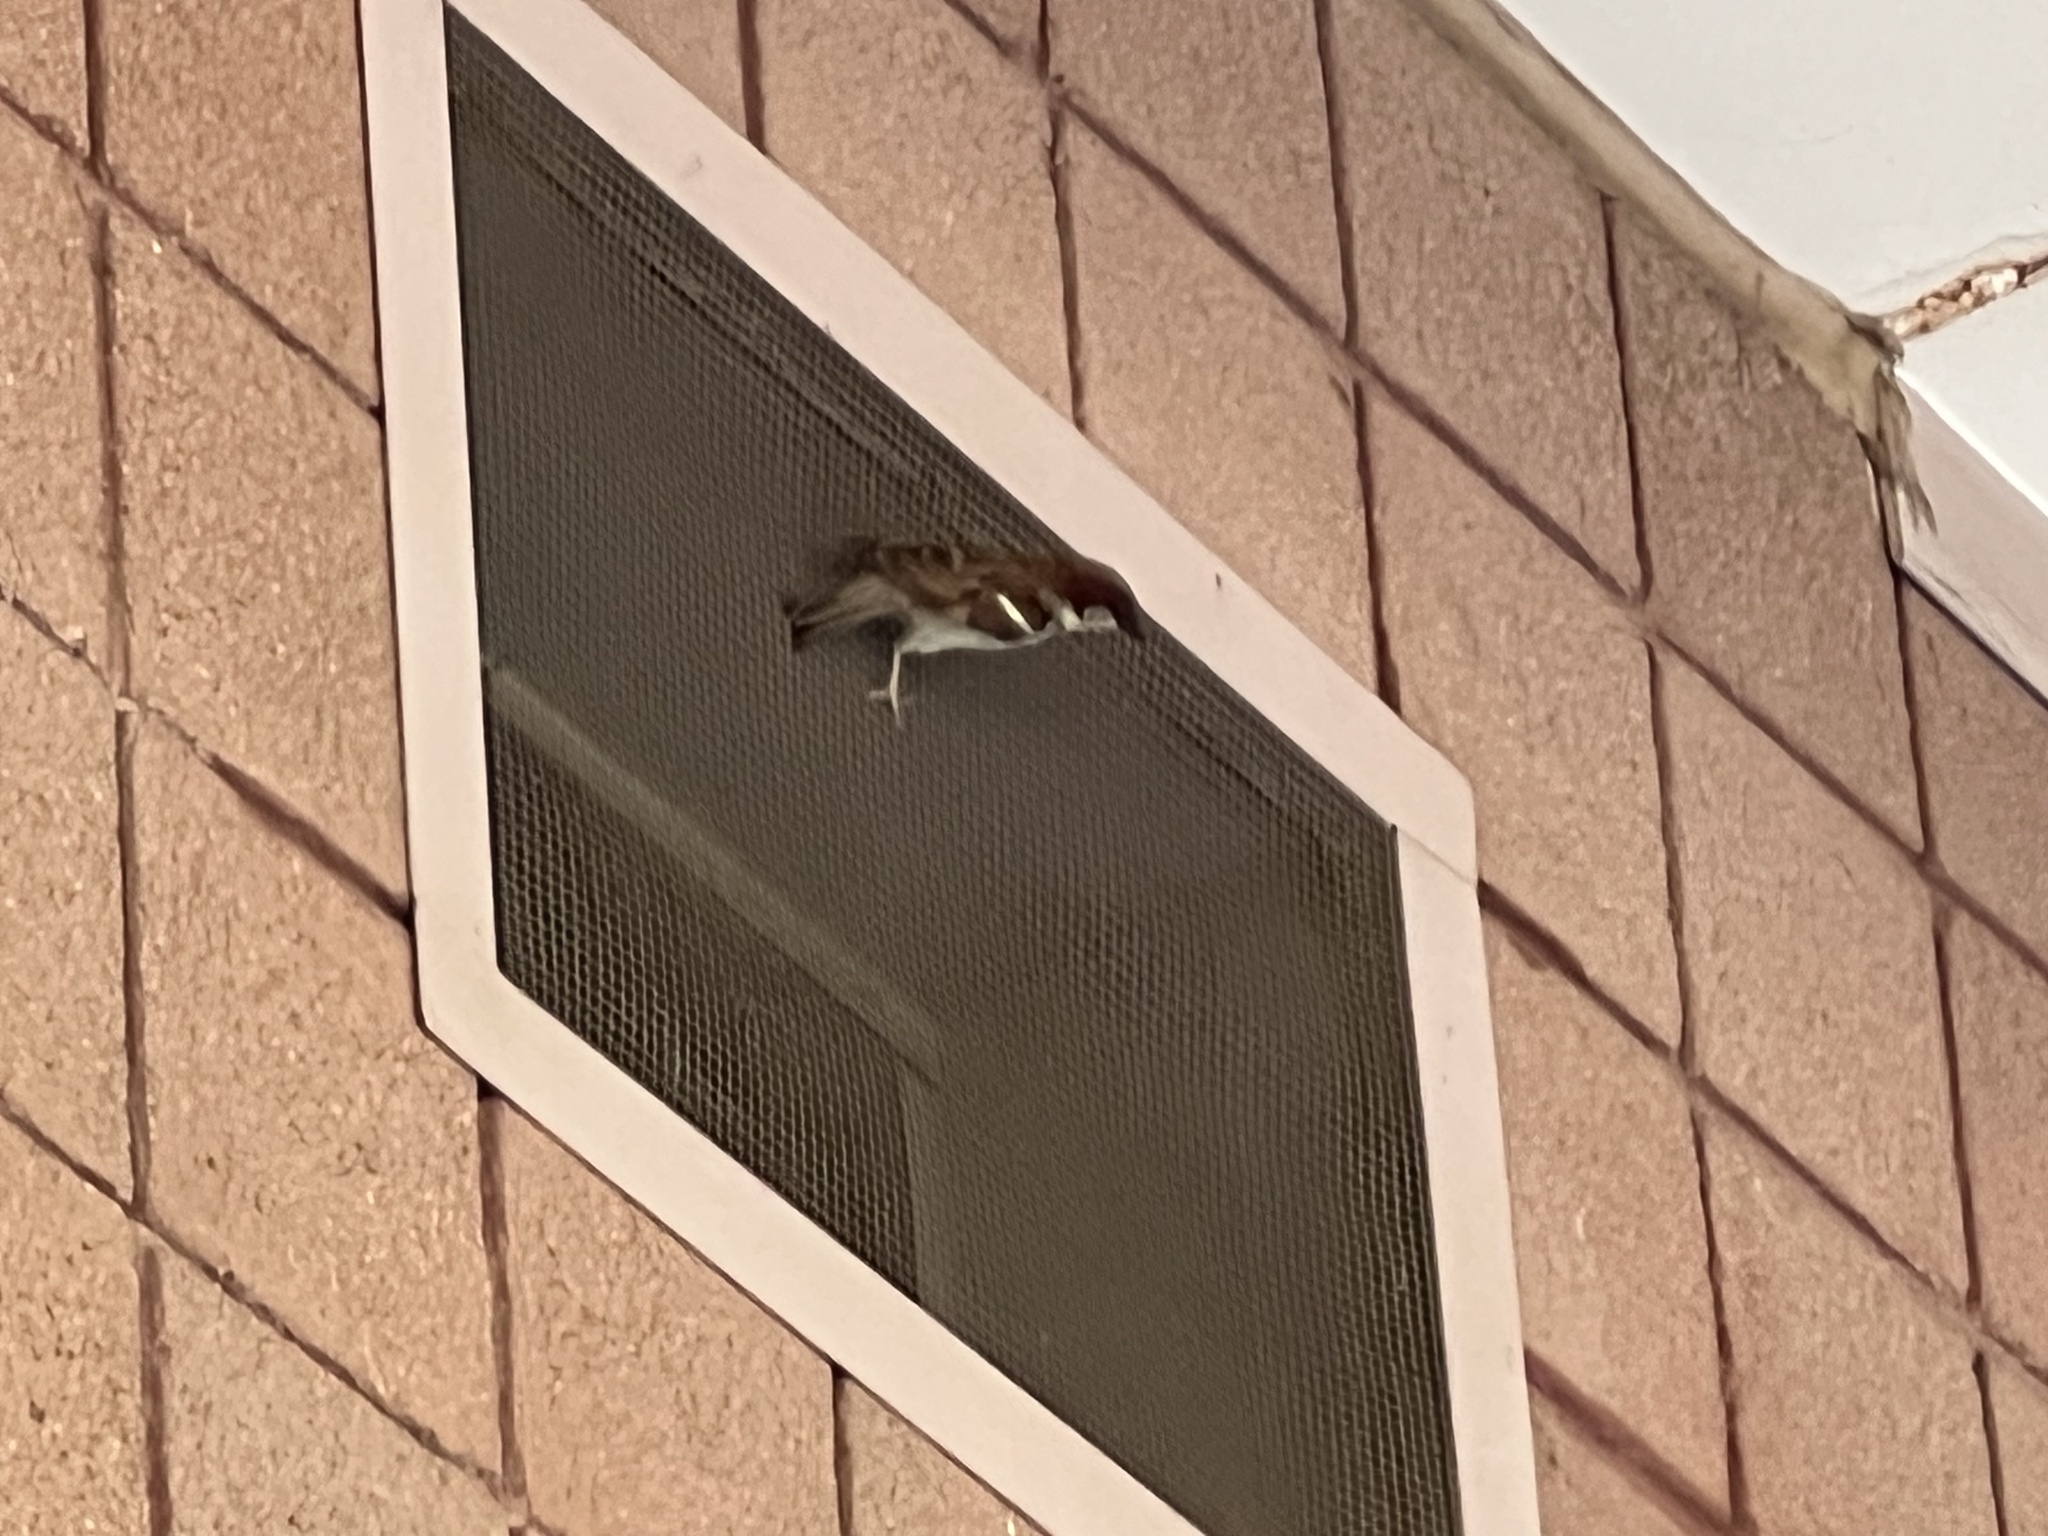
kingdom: Animalia
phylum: Chordata
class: Aves
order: Passeriformes
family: Passeridae
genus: Passer
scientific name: Passer domesticus
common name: House sparrow
